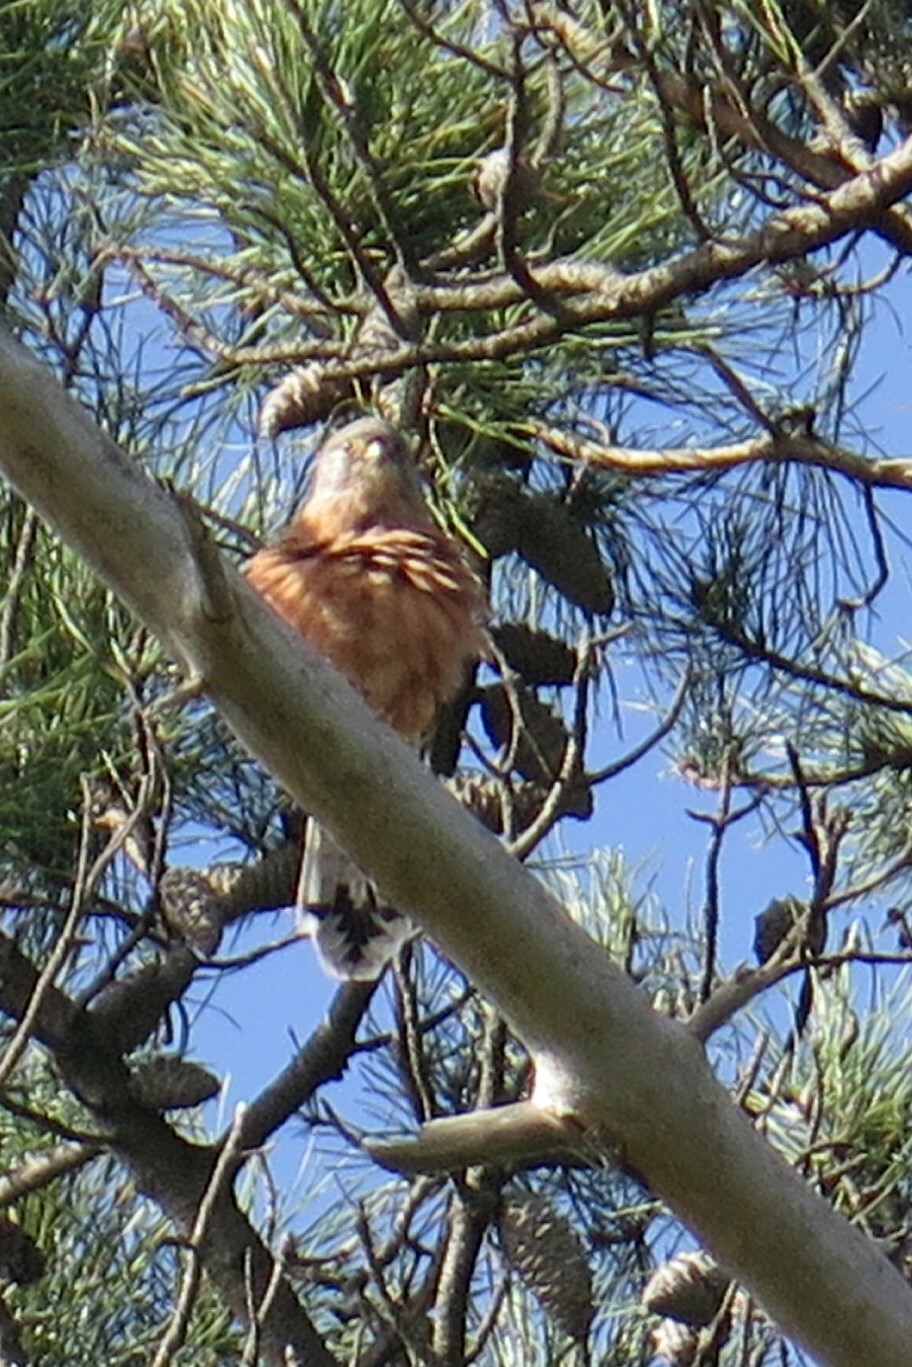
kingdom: Animalia
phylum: Chordata
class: Aves
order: Falconiformes
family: Falconidae
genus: Falco
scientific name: Falco rupicolus
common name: Rock kestrel
